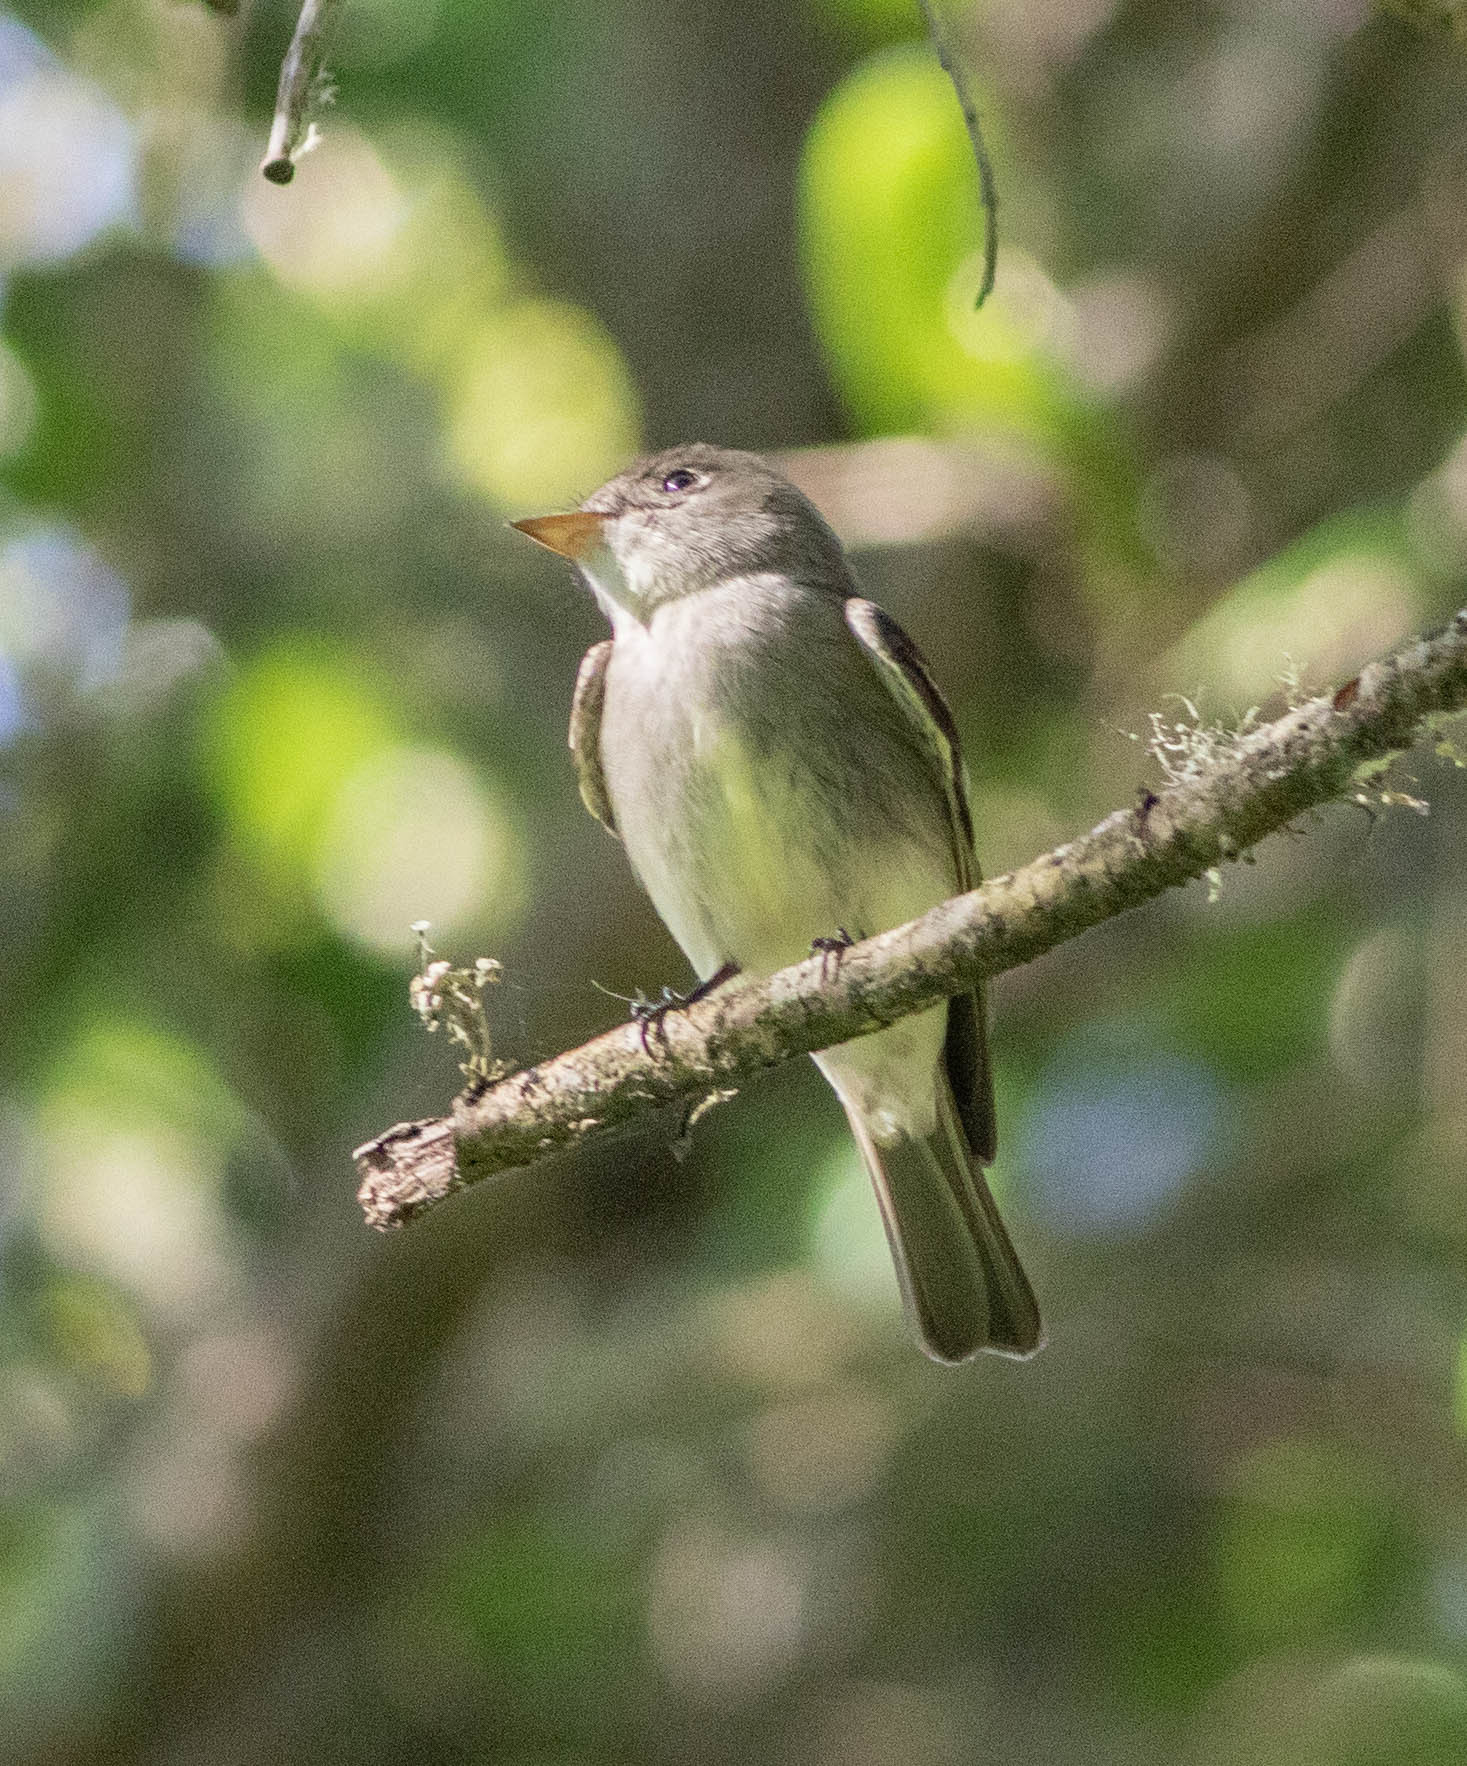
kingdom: Animalia
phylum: Chordata
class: Aves
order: Passeriformes
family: Tyrannidae
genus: Contopus
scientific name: Contopus virens
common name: Eastern wood-pewee
